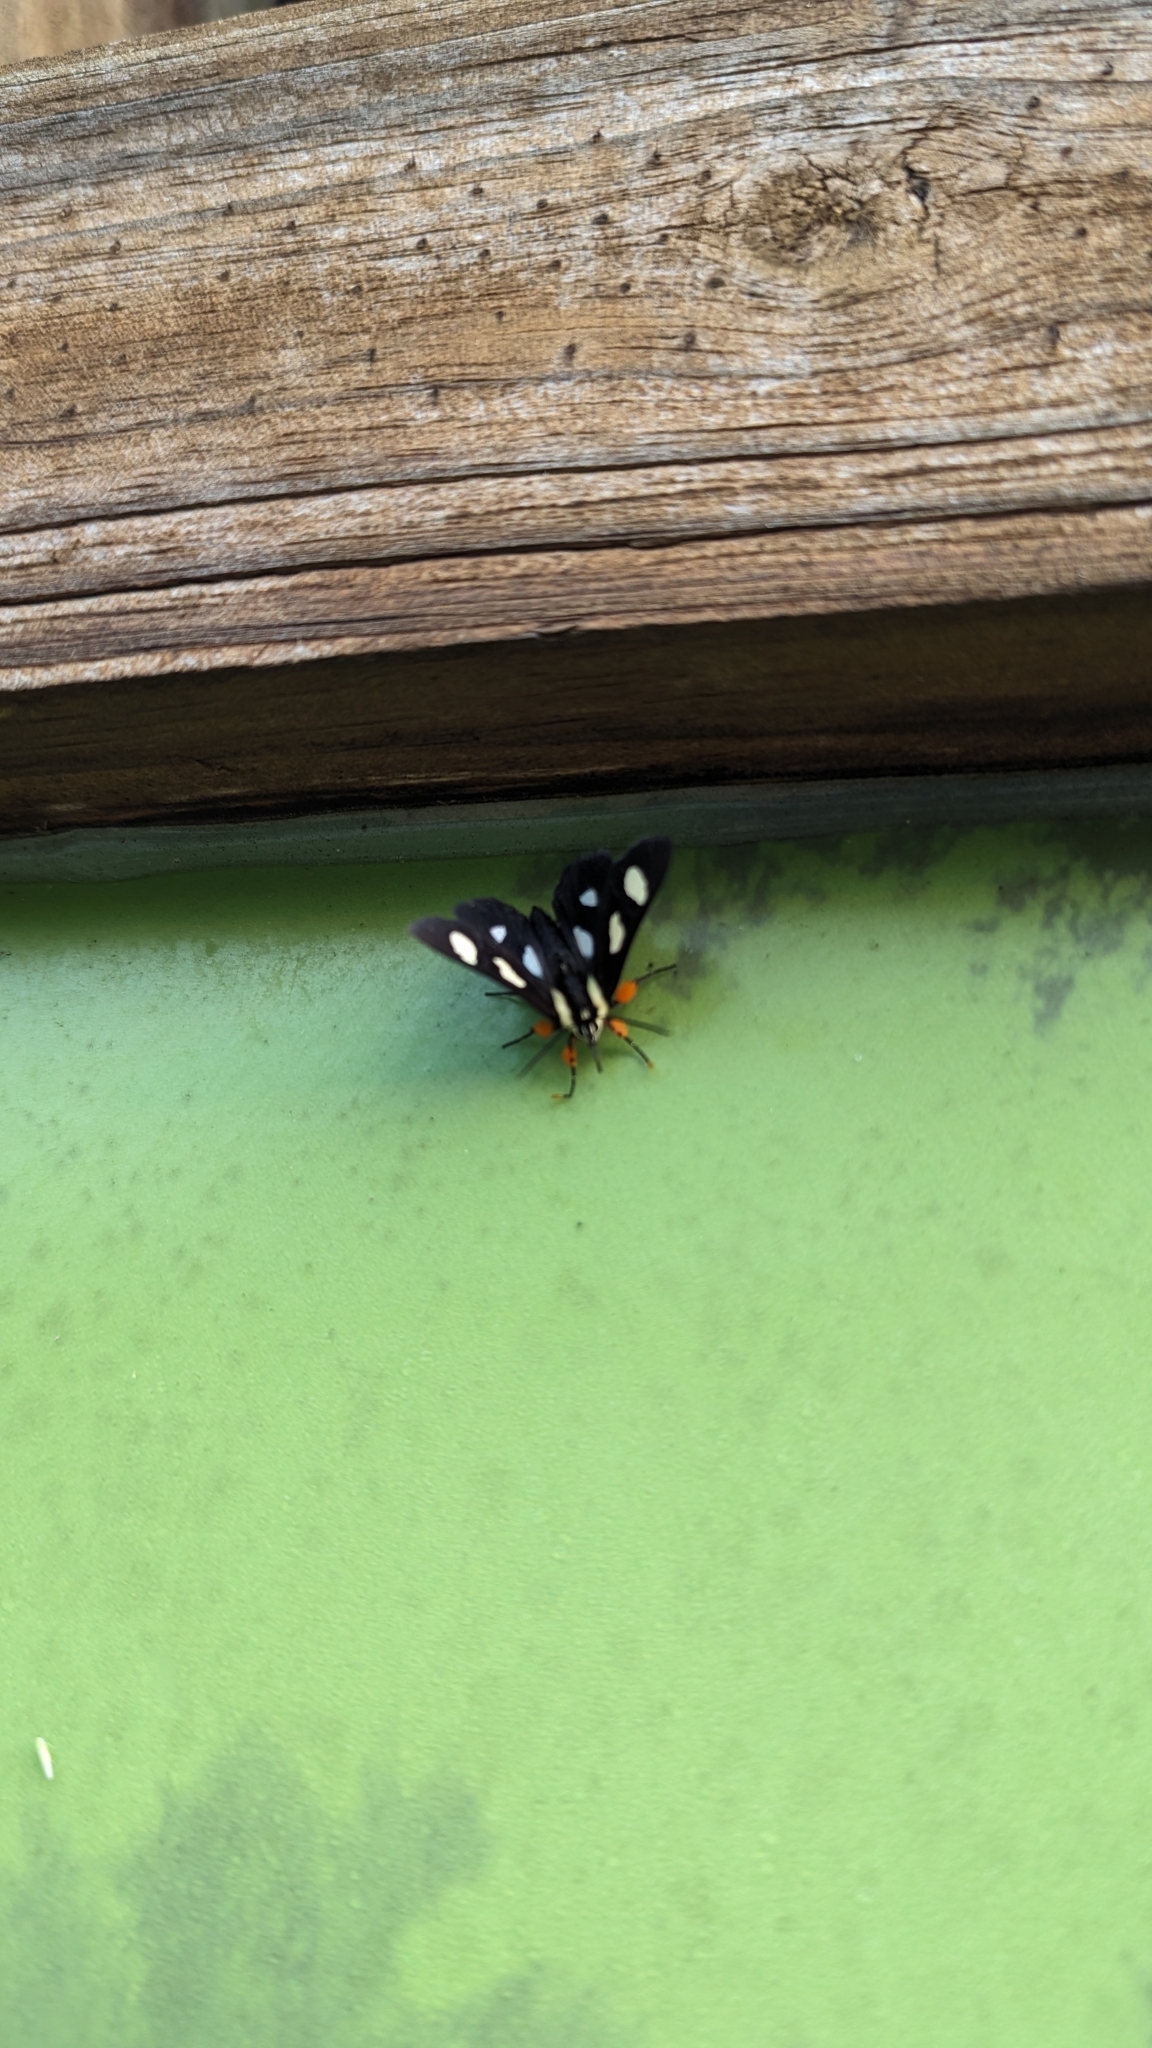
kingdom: Animalia
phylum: Arthropoda
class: Insecta
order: Lepidoptera
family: Noctuidae
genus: Alypia
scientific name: Alypia octomaculata
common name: Eight-spotted forester
